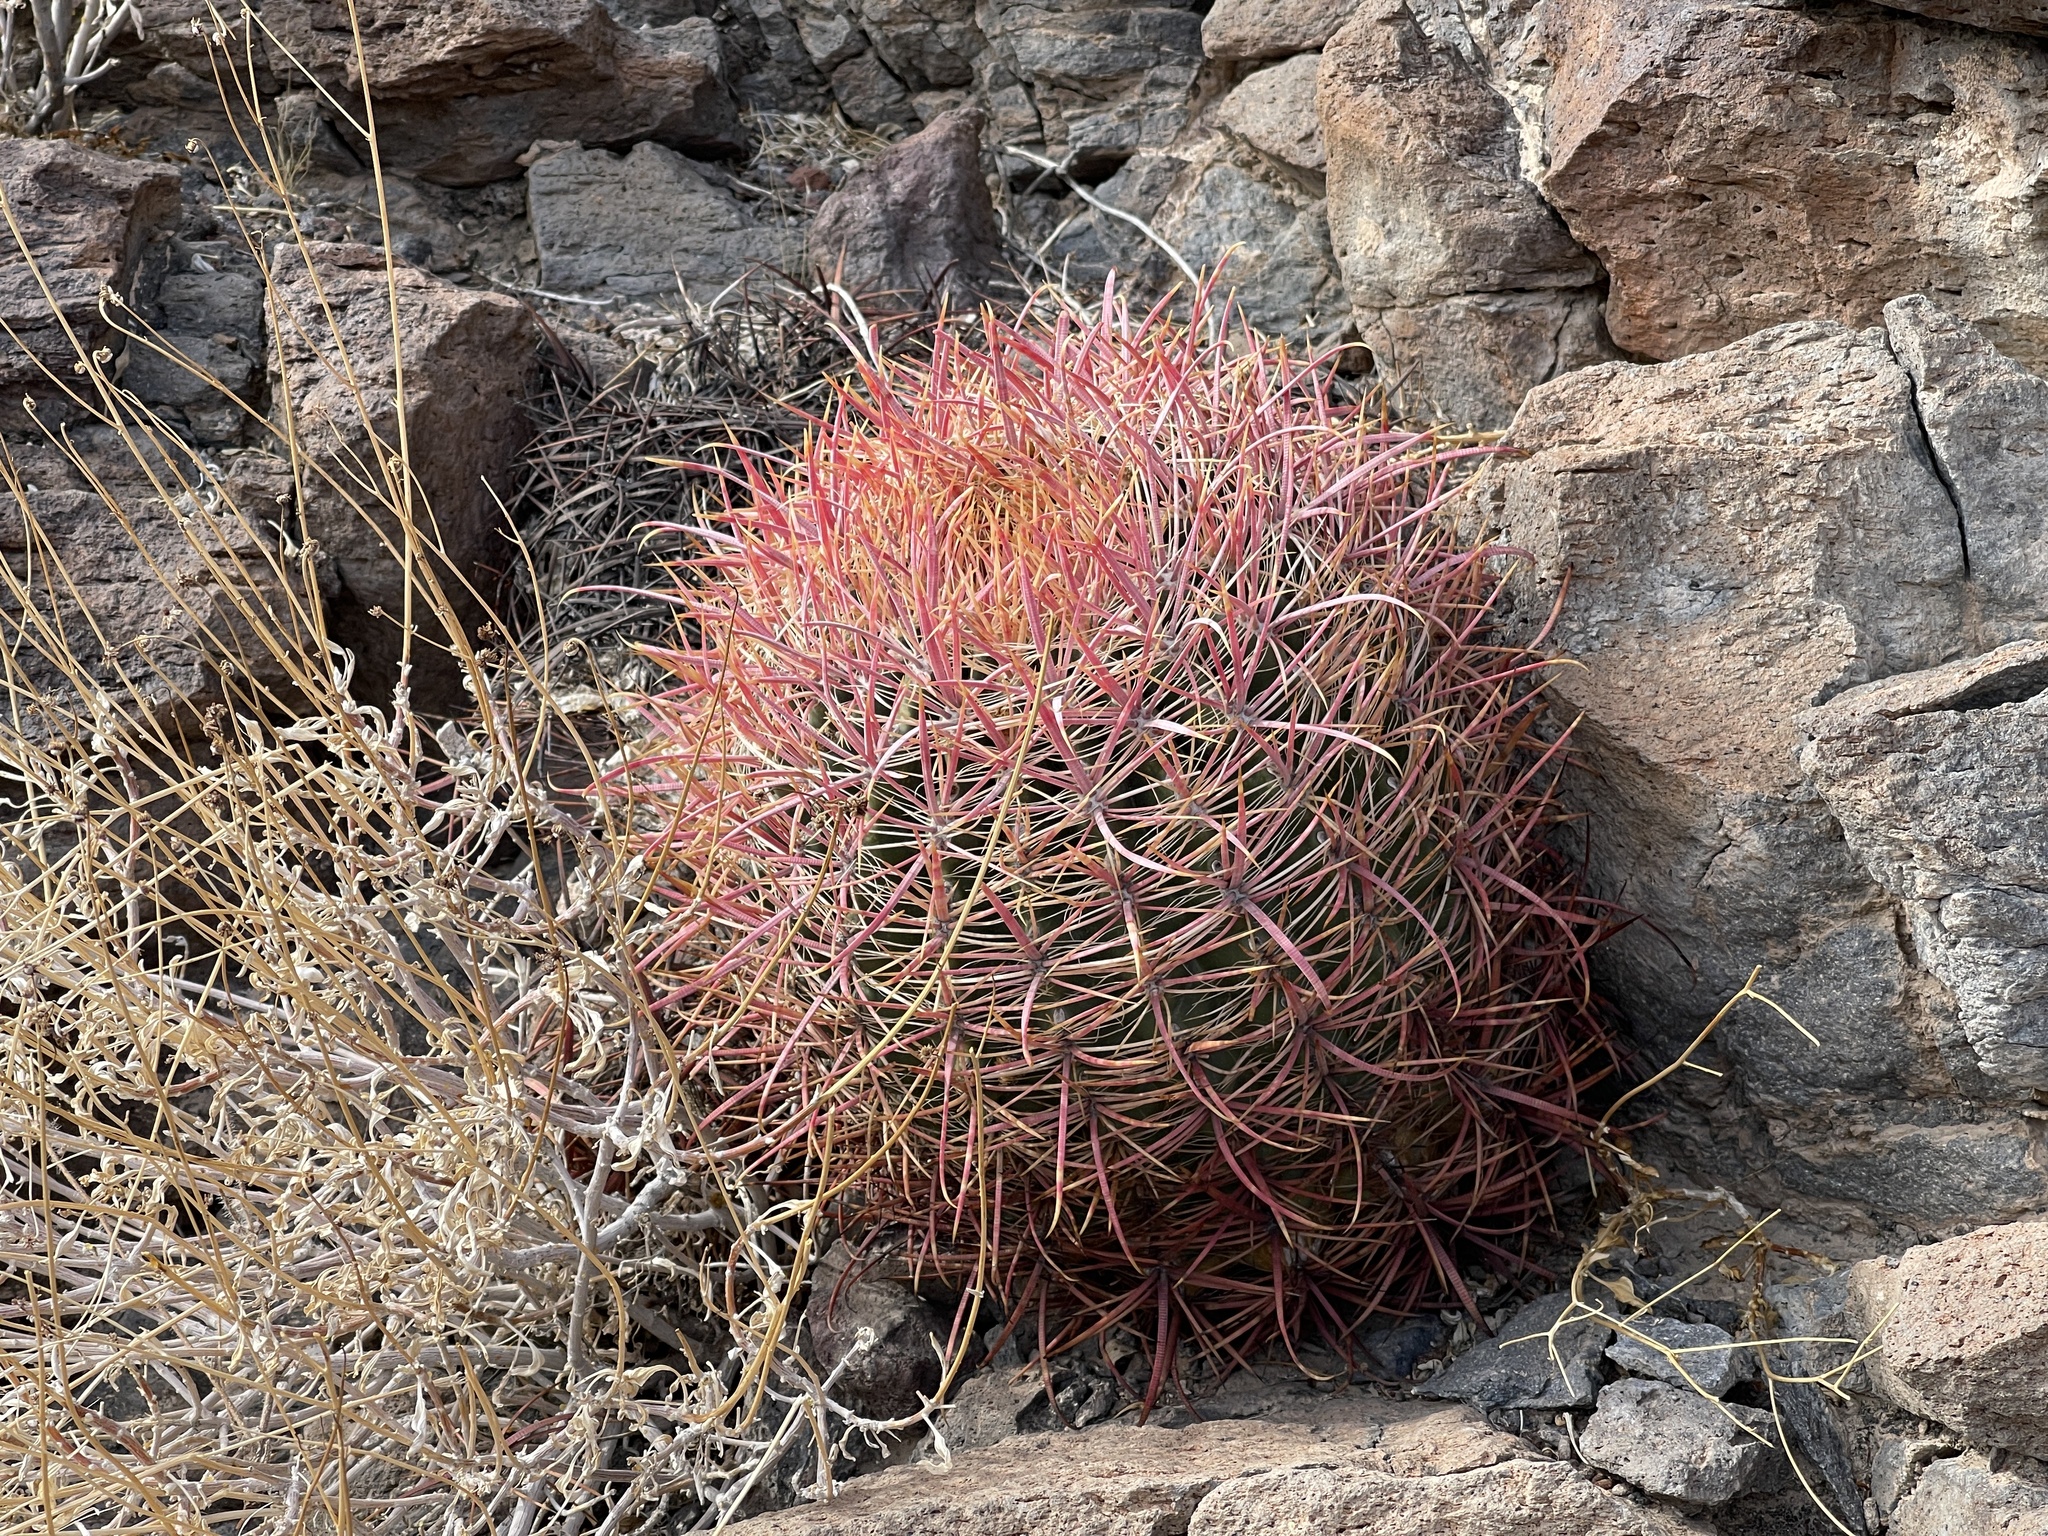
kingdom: Plantae
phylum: Tracheophyta
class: Magnoliopsida
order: Caryophyllales
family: Cactaceae
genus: Ferocactus
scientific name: Ferocactus cylindraceus
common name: California barrel cactus
